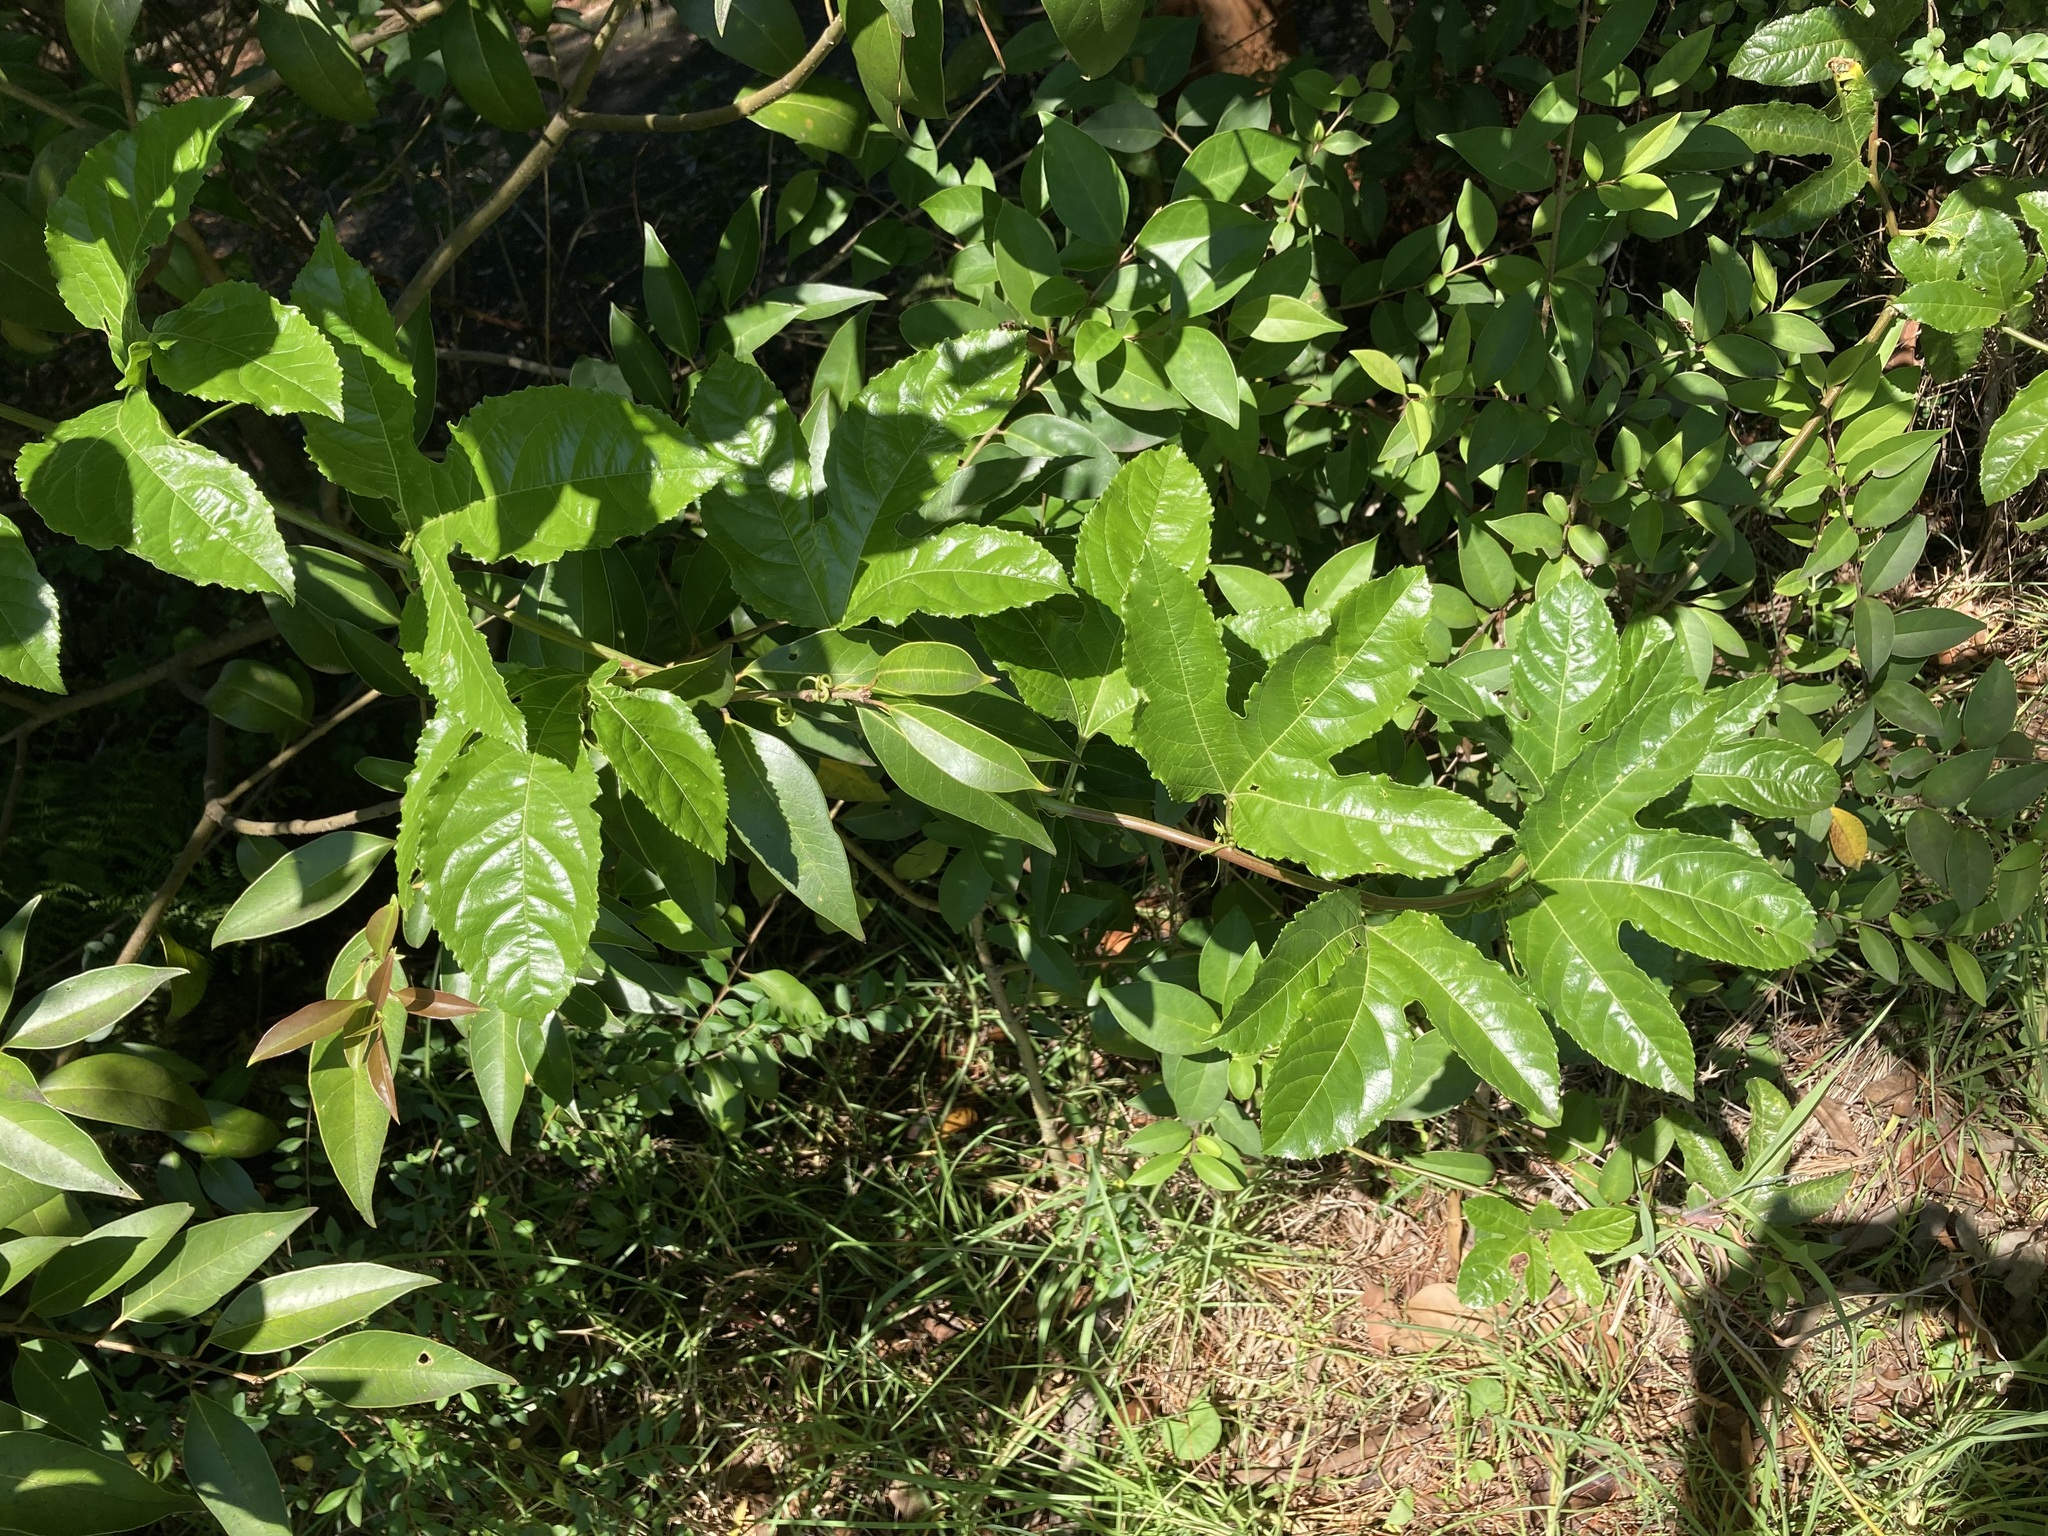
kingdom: Plantae
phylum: Tracheophyta
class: Magnoliopsida
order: Malpighiales
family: Passifloraceae
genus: Passiflora
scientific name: Passiflora edulis
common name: Purple granadilla
